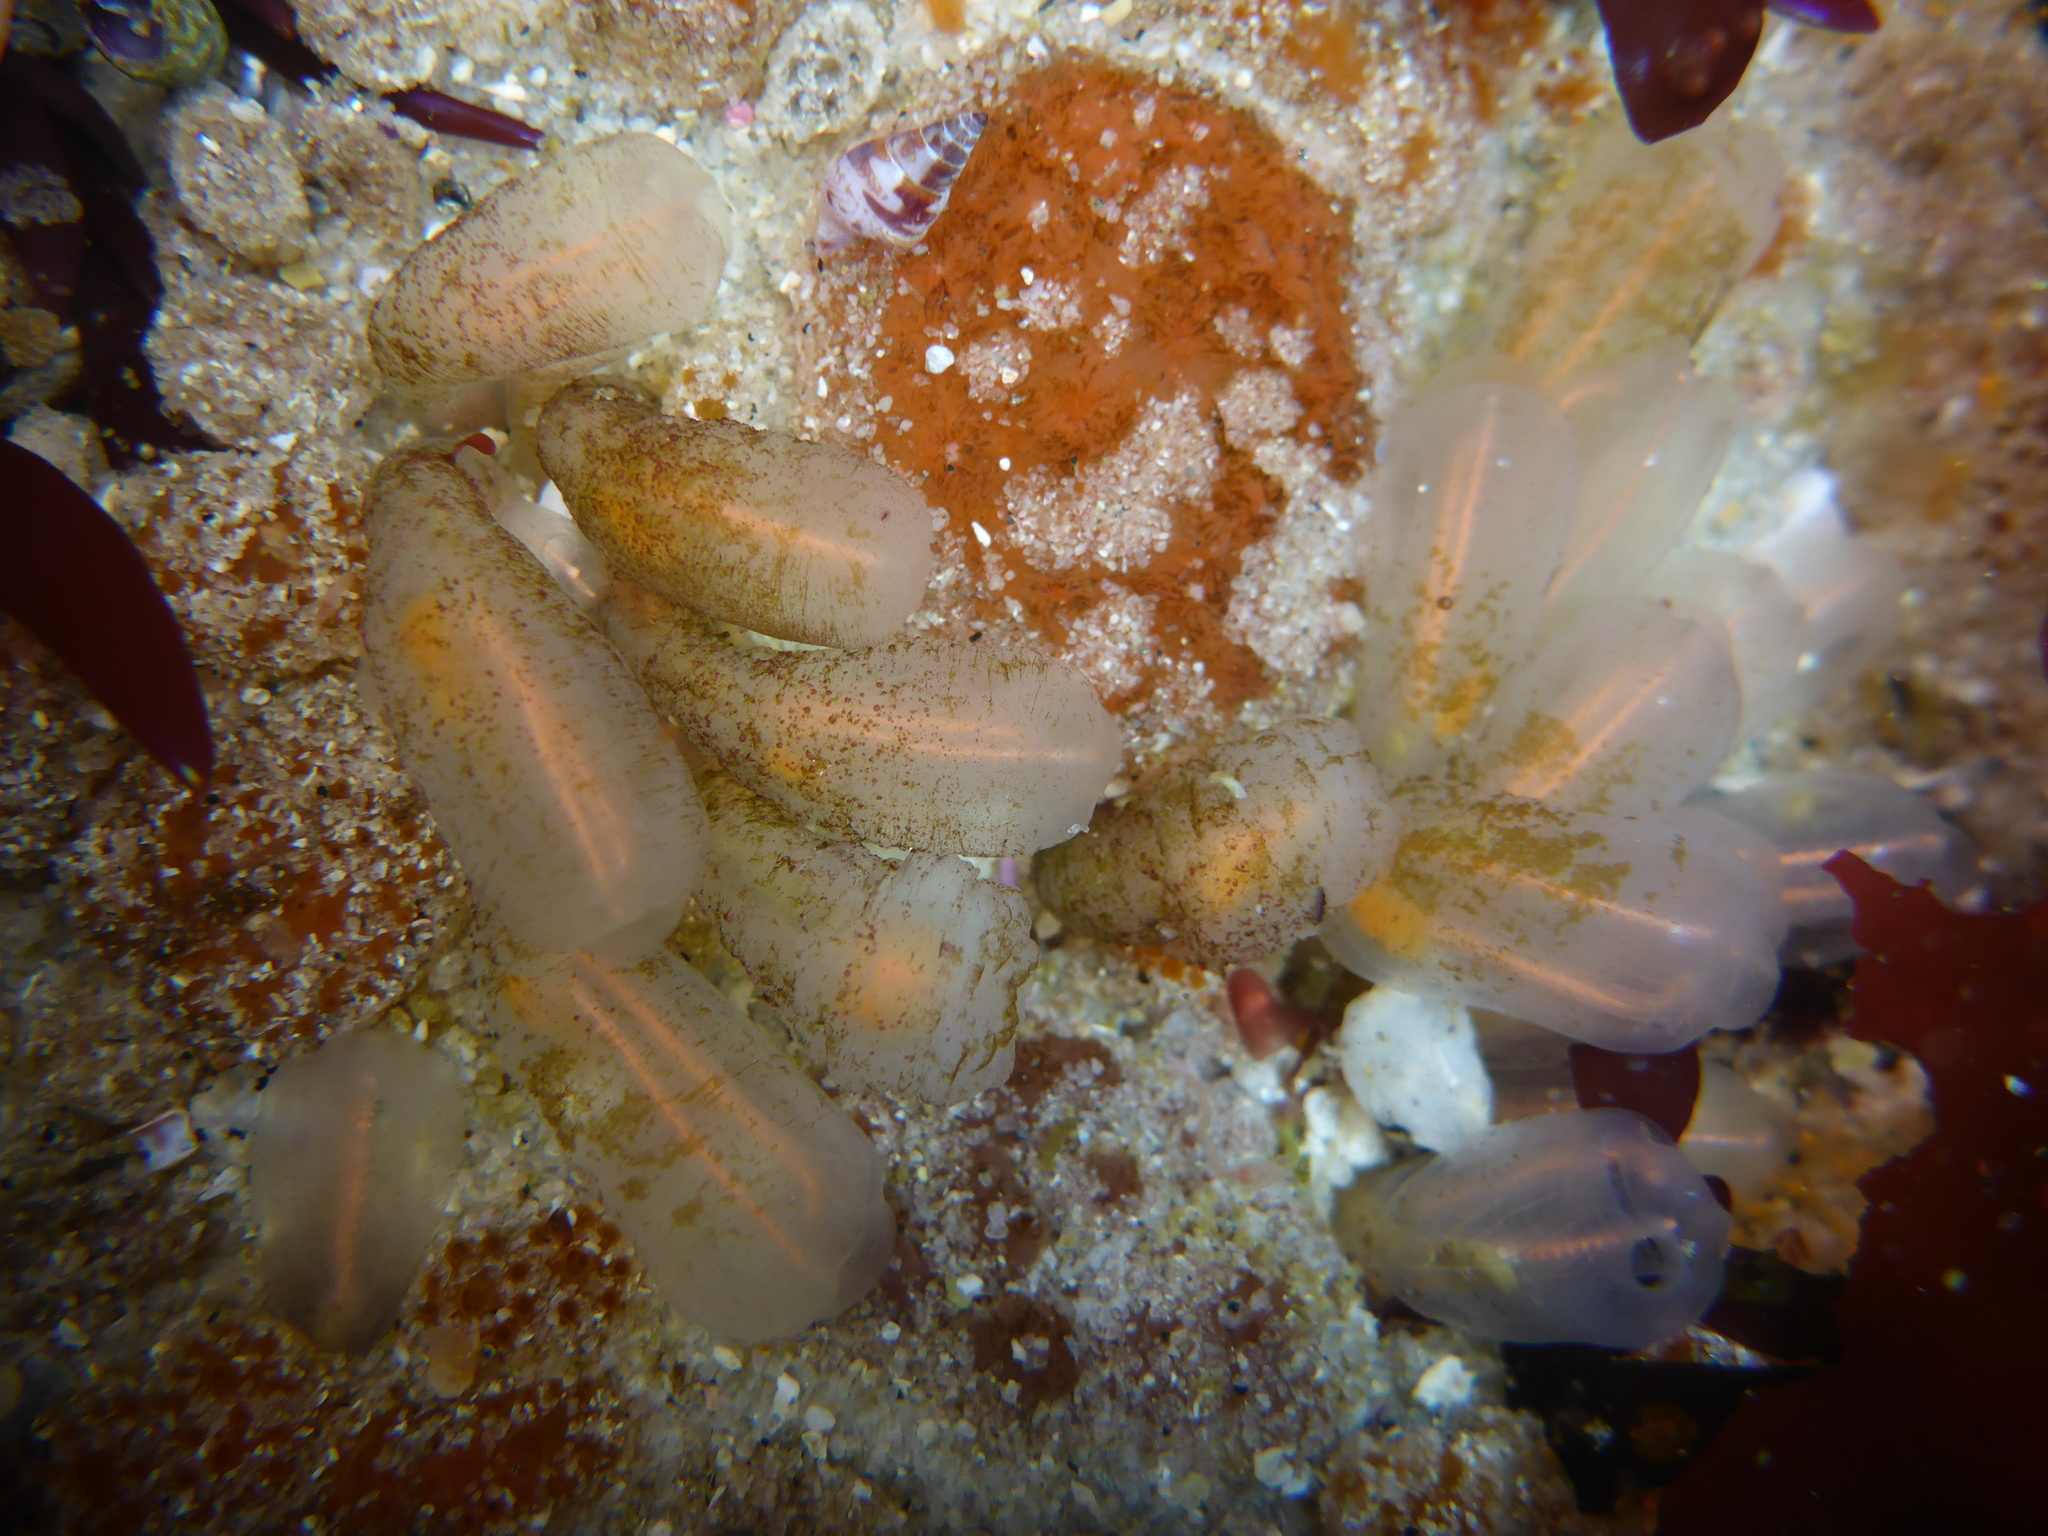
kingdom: Animalia
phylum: Chordata
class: Ascidiacea
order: Aplousobranchia
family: Clavelinidae
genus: Clavelina
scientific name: Clavelina huntsmani
